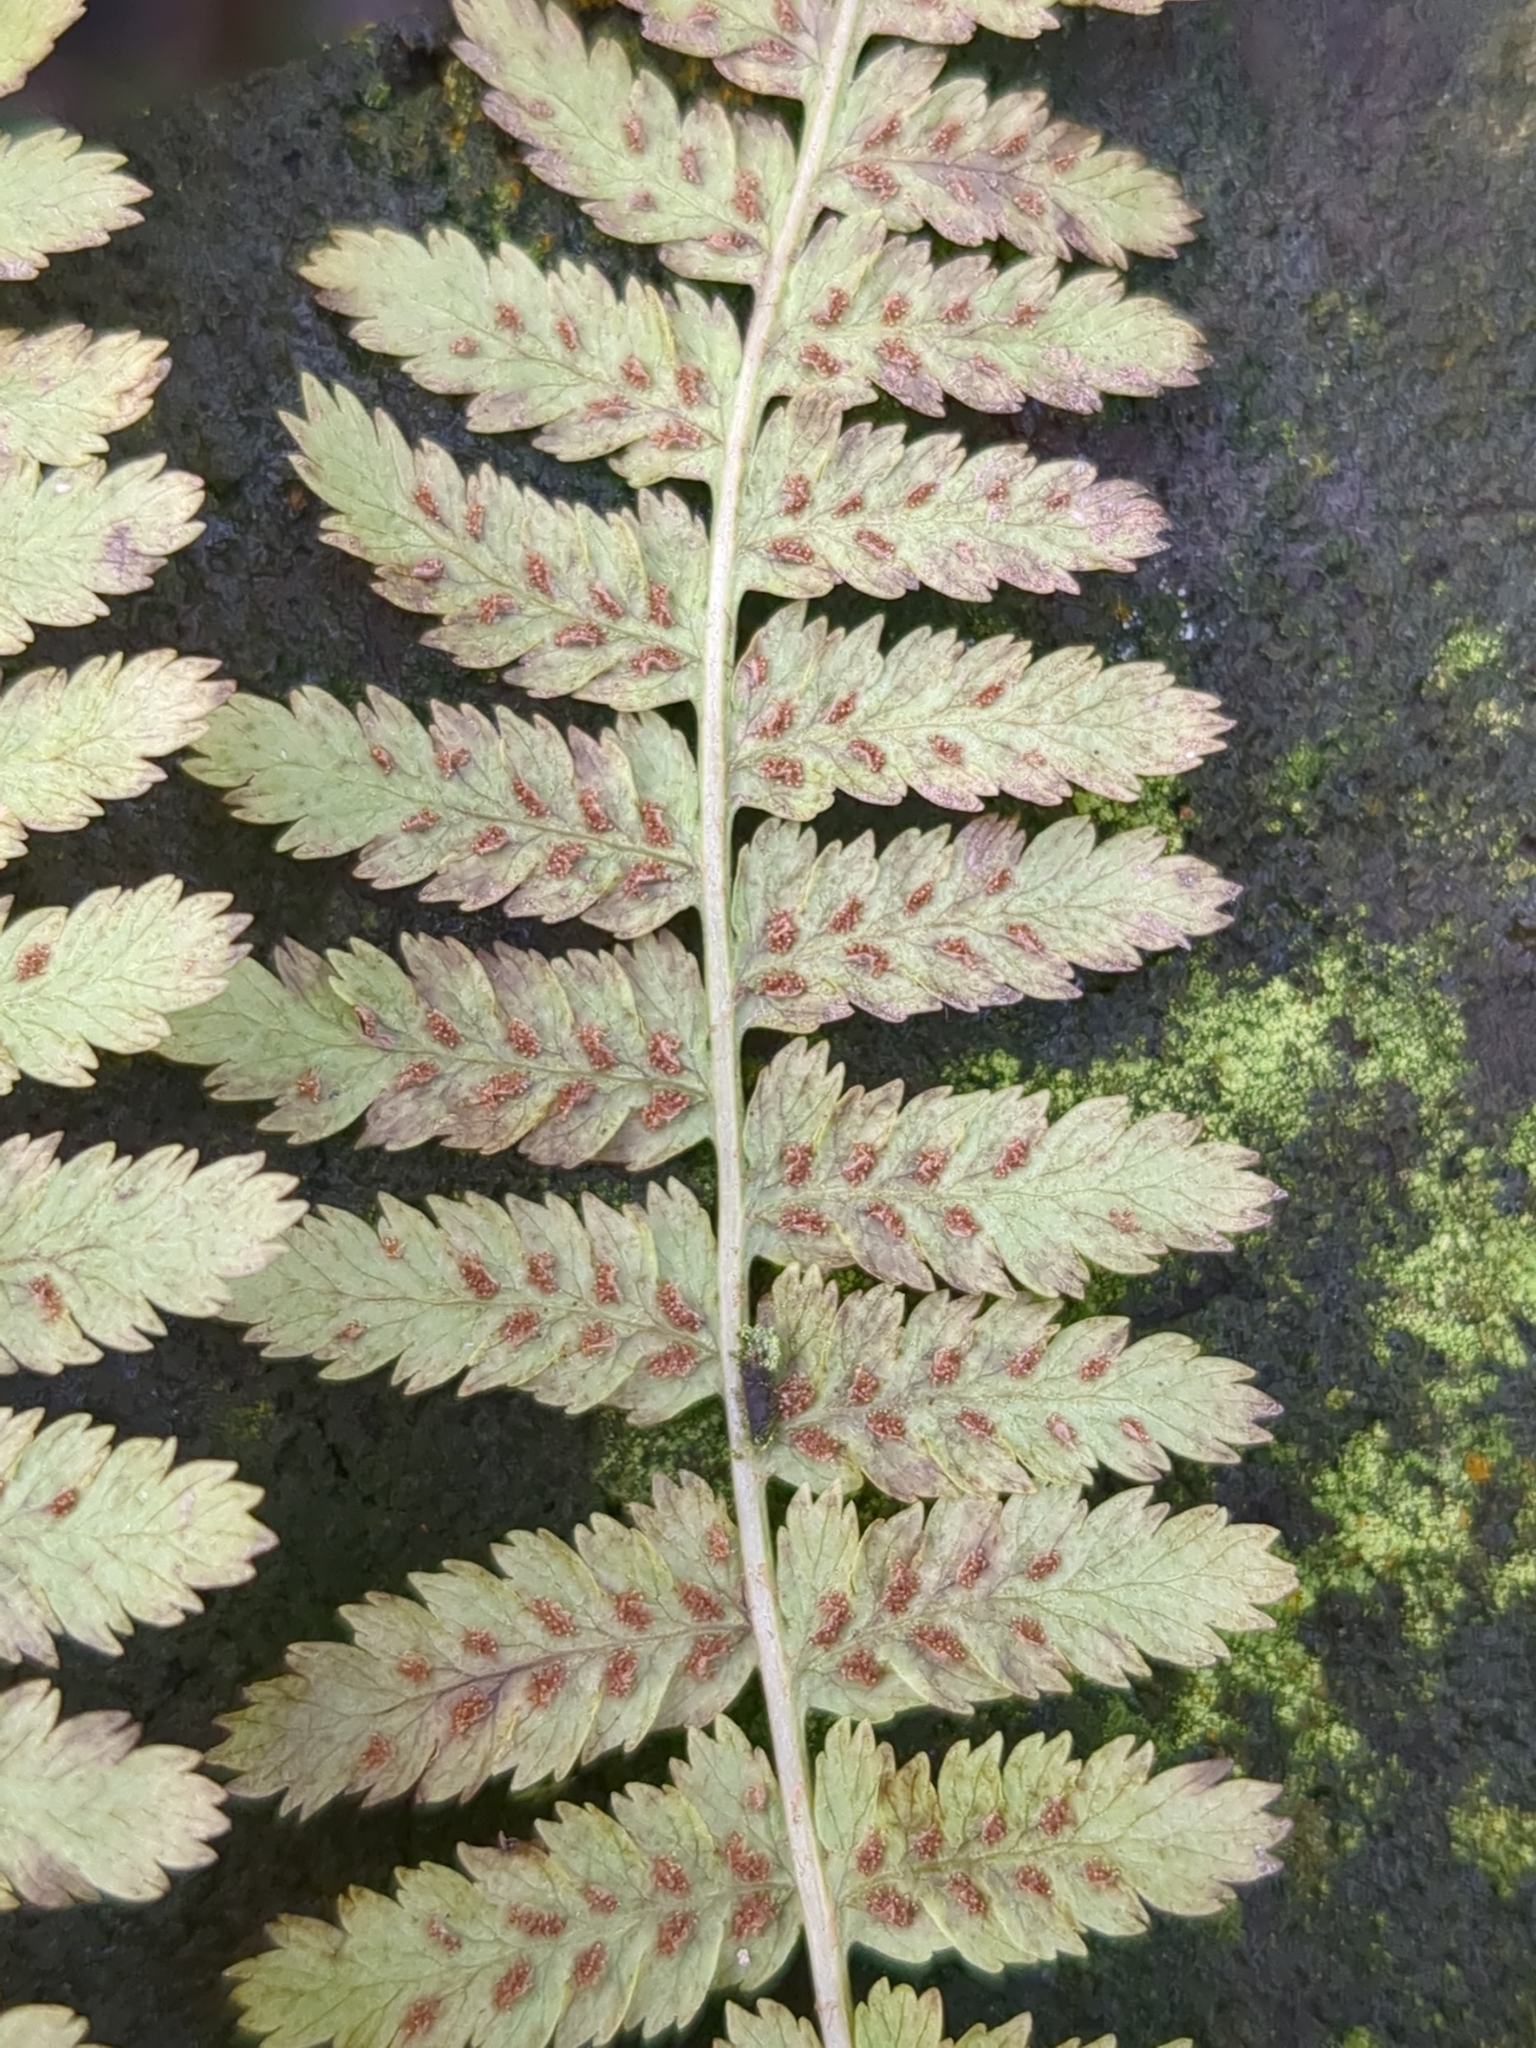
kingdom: Plantae
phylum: Tracheophyta
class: Polypodiopsida
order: Polypodiales
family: Athyriaceae
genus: Athyrium
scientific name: Athyrium filix-femina
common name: Lady fern
